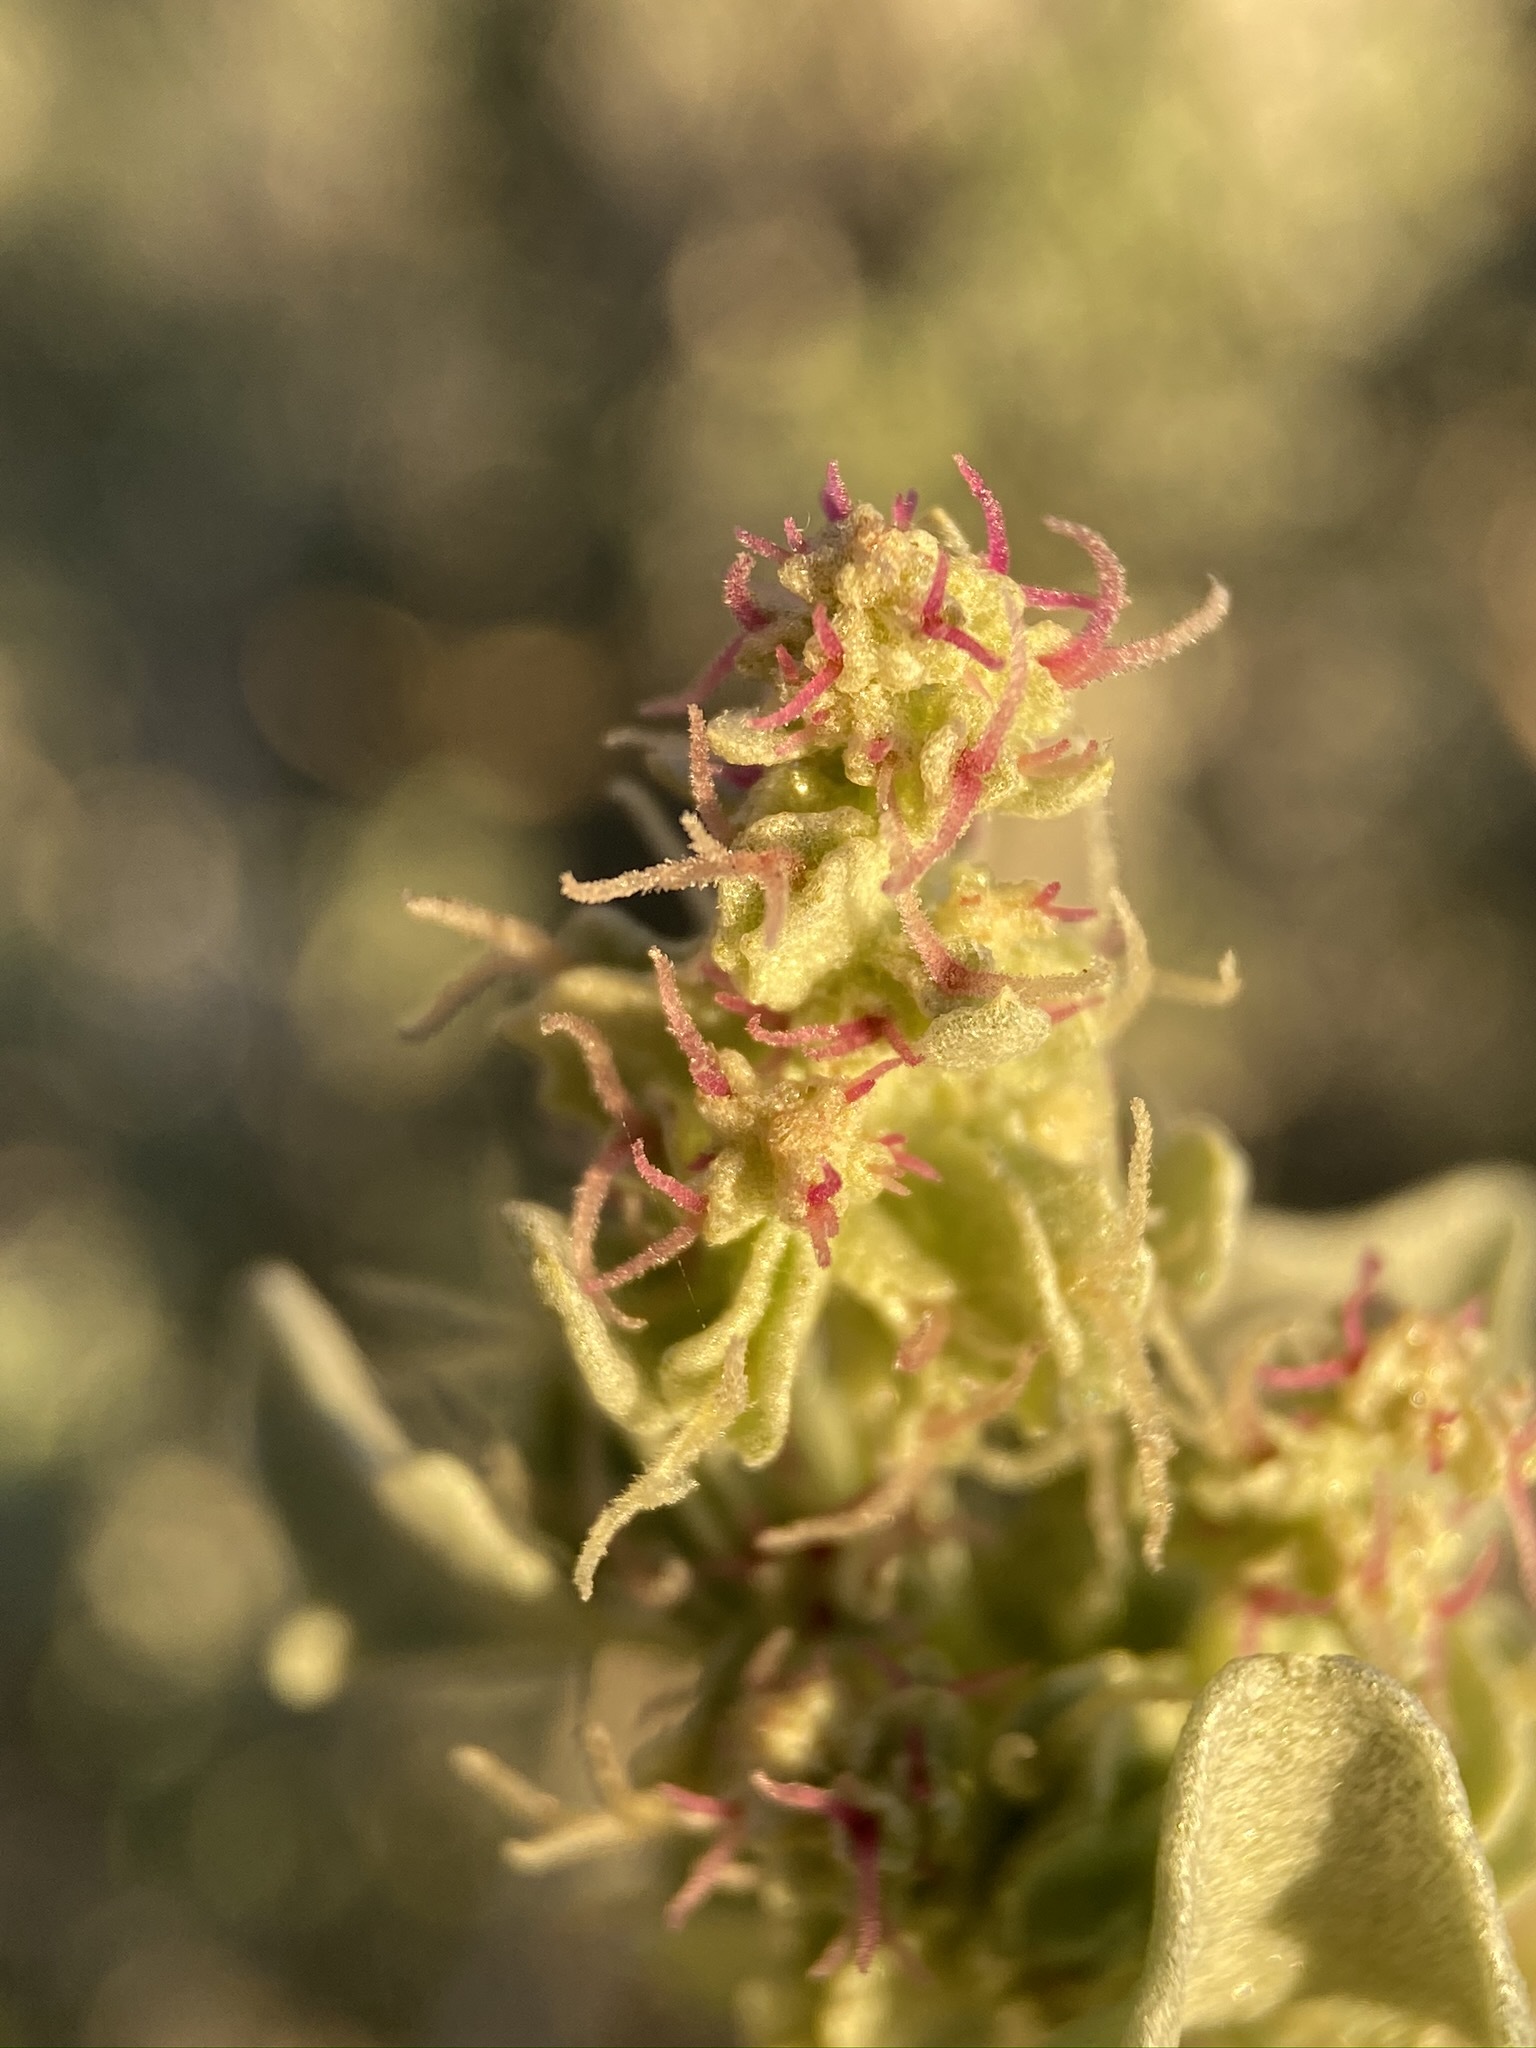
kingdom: Plantae
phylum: Tracheophyta
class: Magnoliopsida
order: Caryophyllales
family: Amaranthaceae
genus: Atriplex
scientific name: Atriplex hymenelytra
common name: Desert-holly
